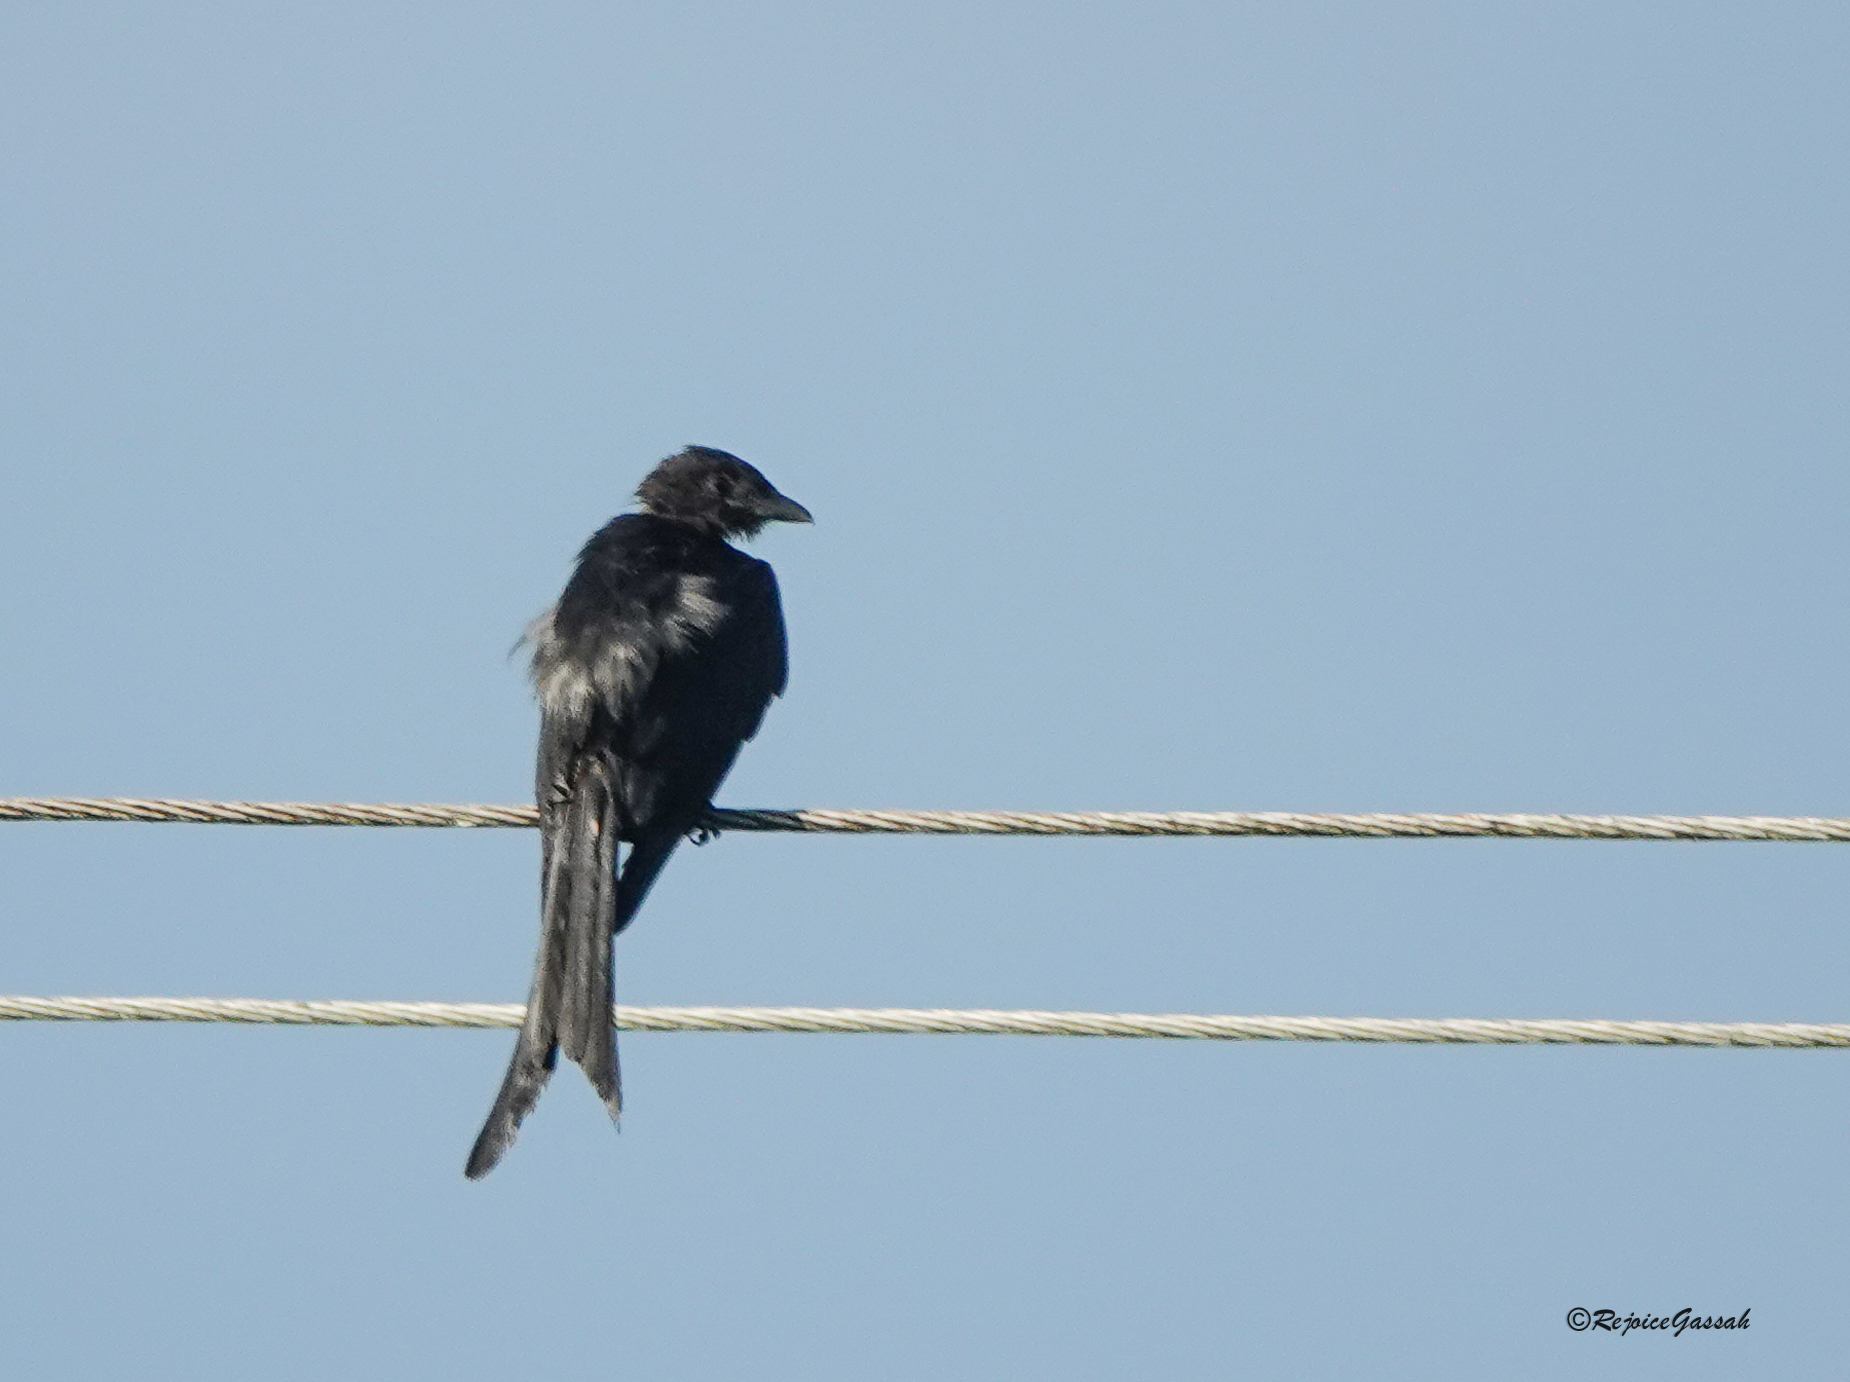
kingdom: Animalia
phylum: Chordata
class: Aves
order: Passeriformes
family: Dicruridae
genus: Dicrurus
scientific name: Dicrurus macrocercus
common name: Black drongo
